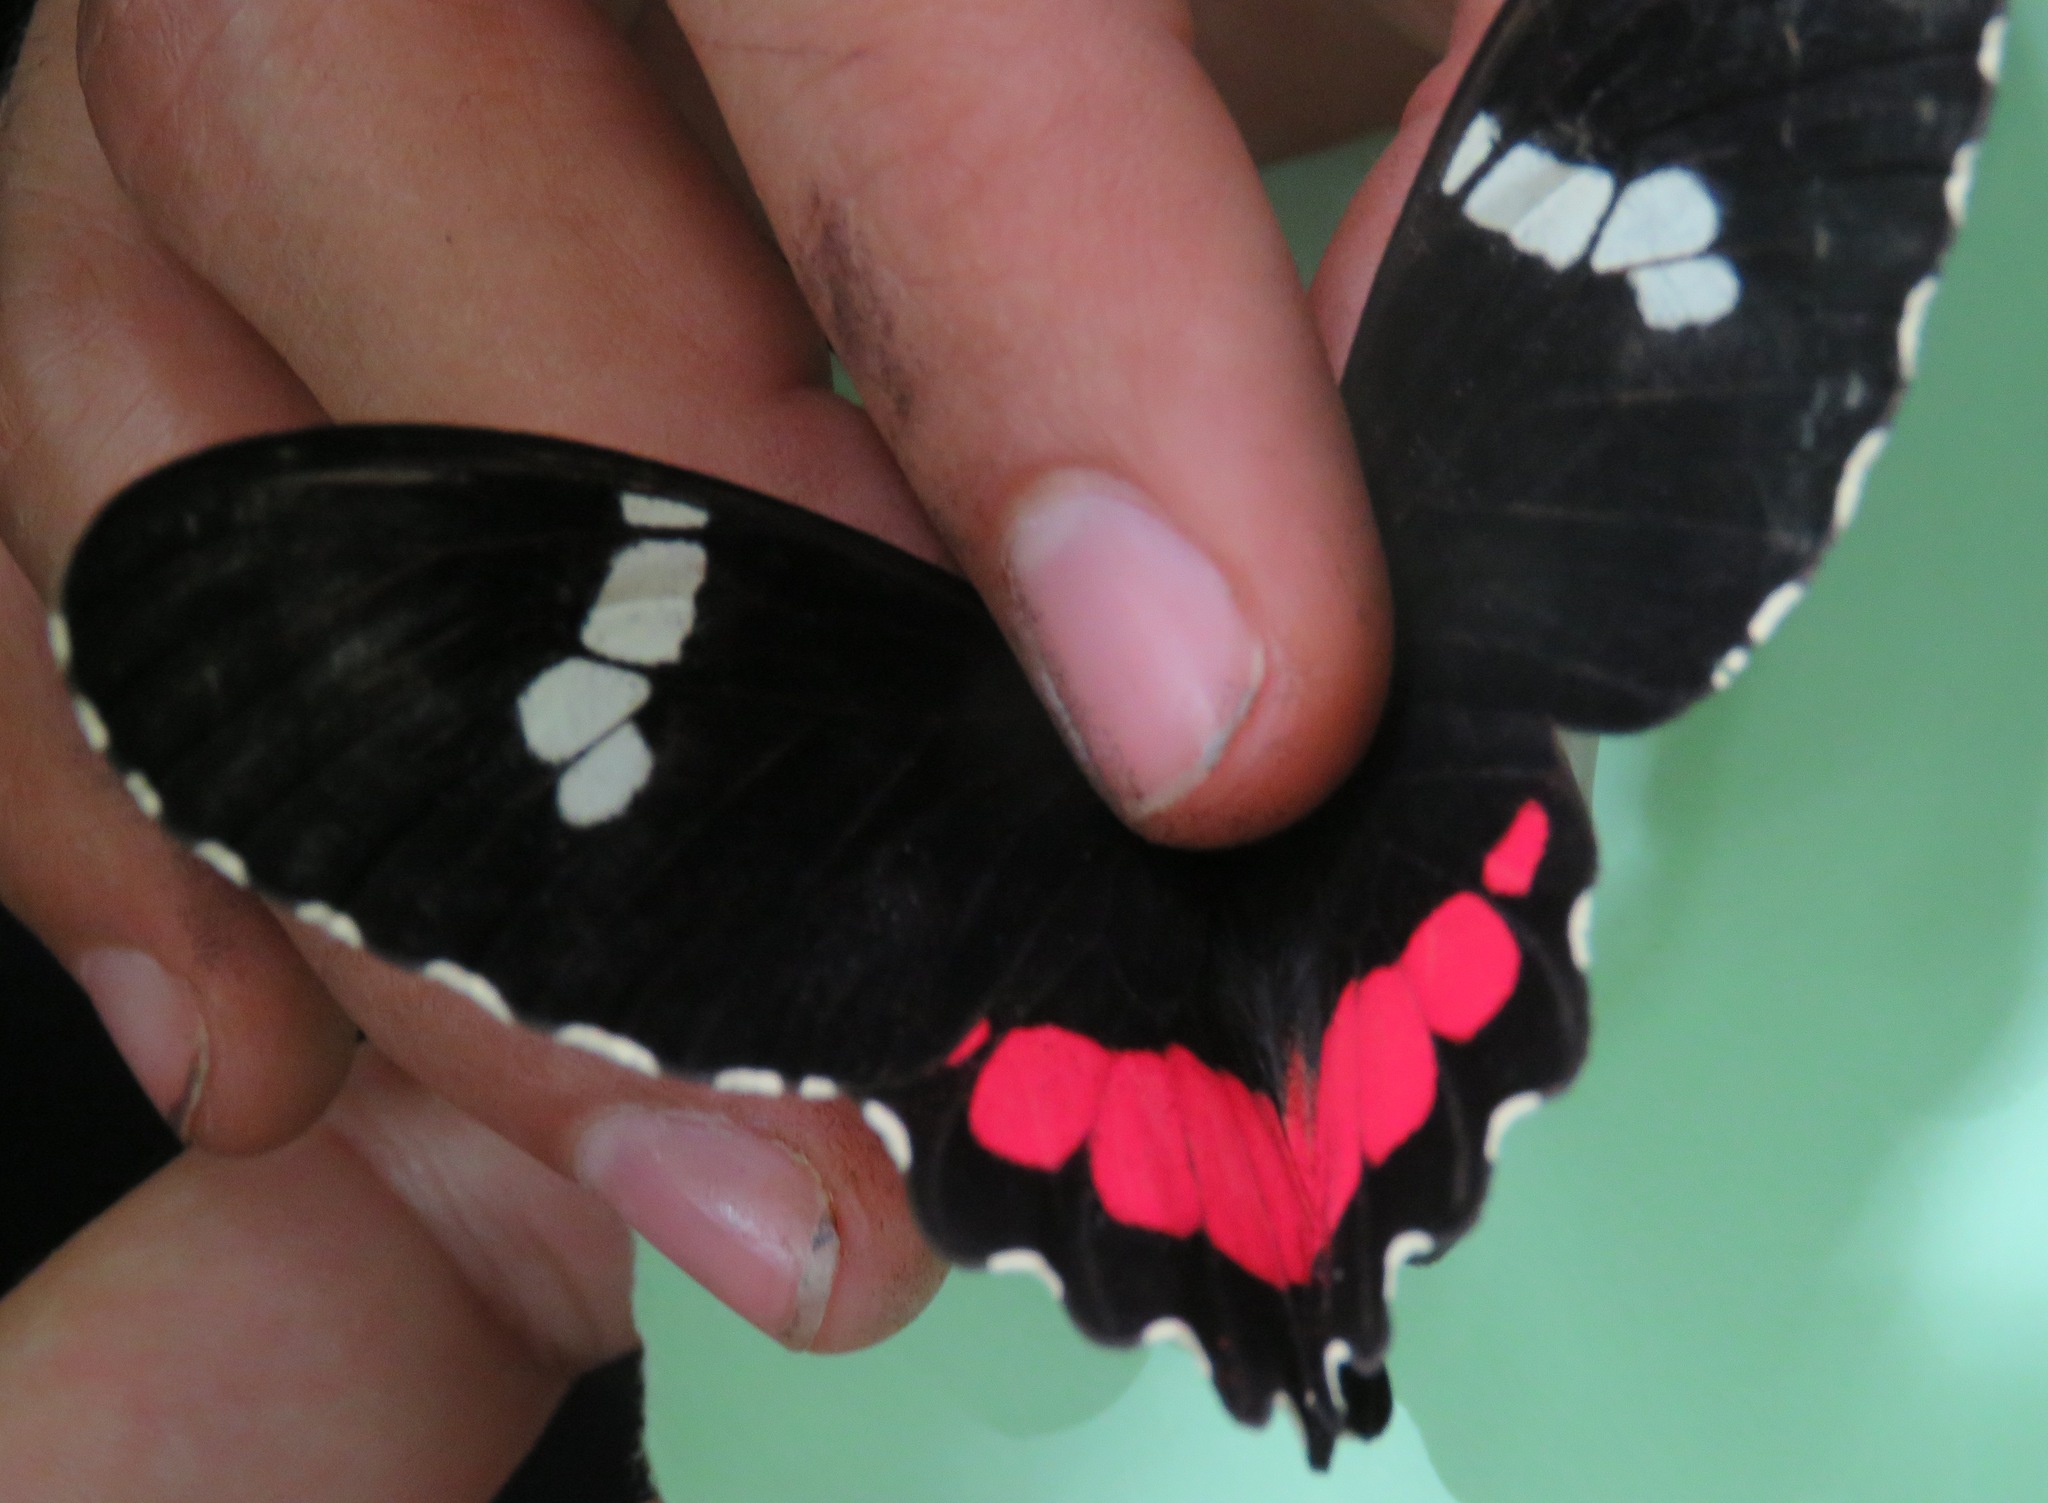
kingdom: Animalia
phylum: Arthropoda
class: Insecta
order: Lepidoptera
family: Papilionidae
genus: Parides
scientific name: Parides iphidamas
